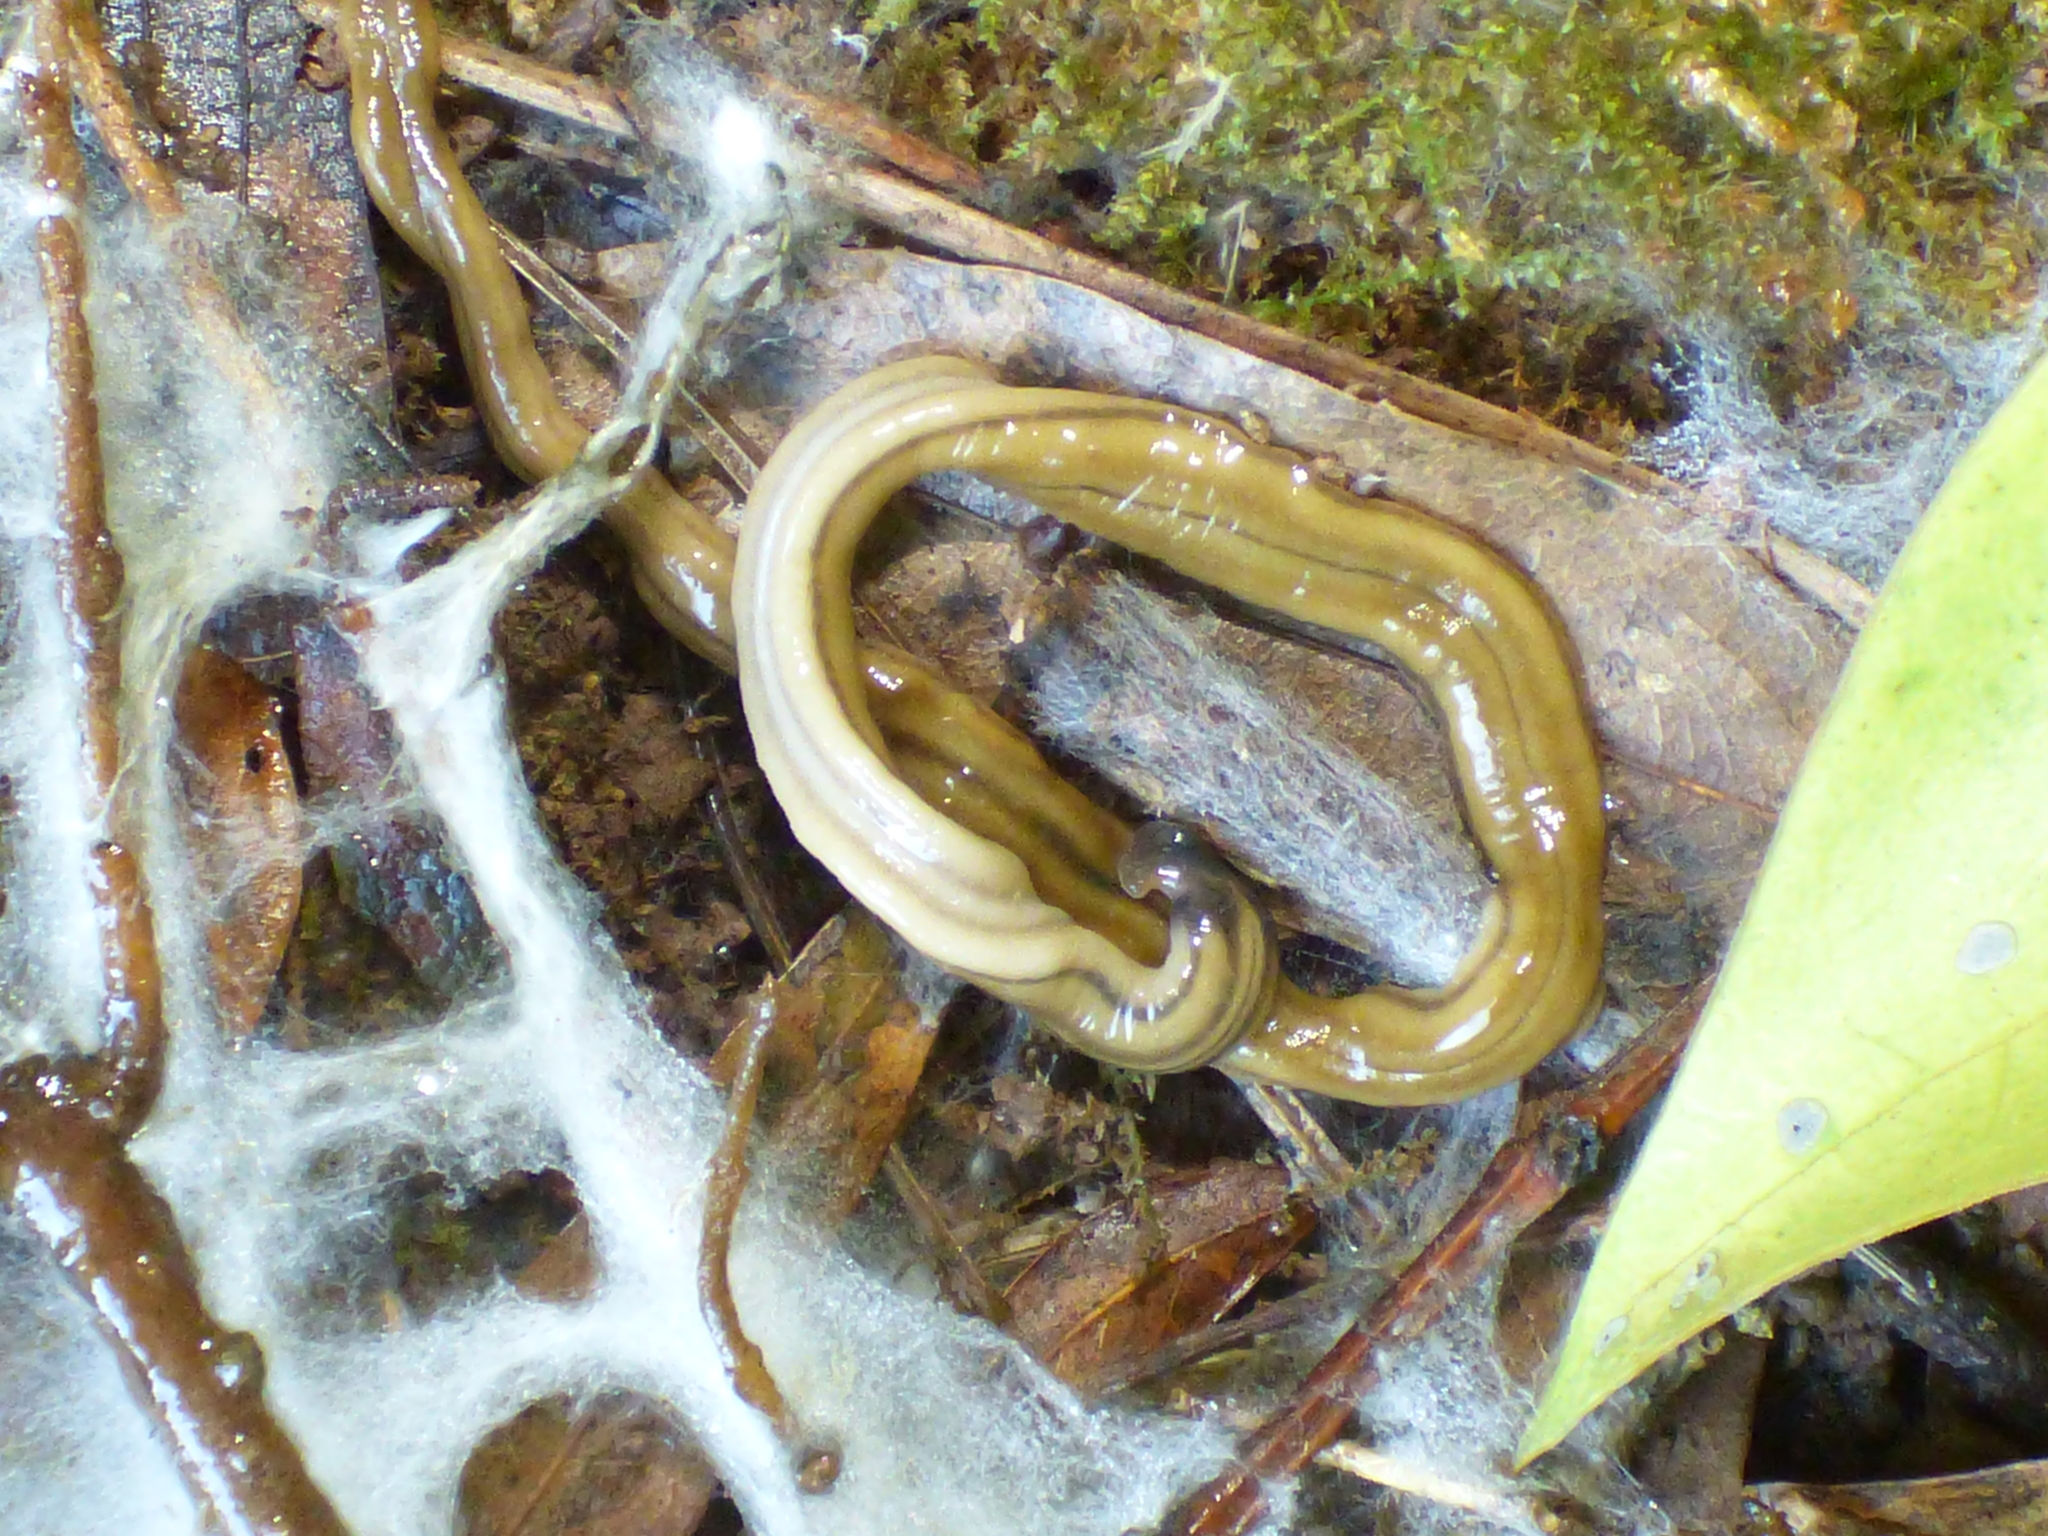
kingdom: Animalia
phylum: Platyhelminthes
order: Tricladida
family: Geoplanidae
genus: Bipalium
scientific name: Bipalium kewense
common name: Hammerhead flatworm
